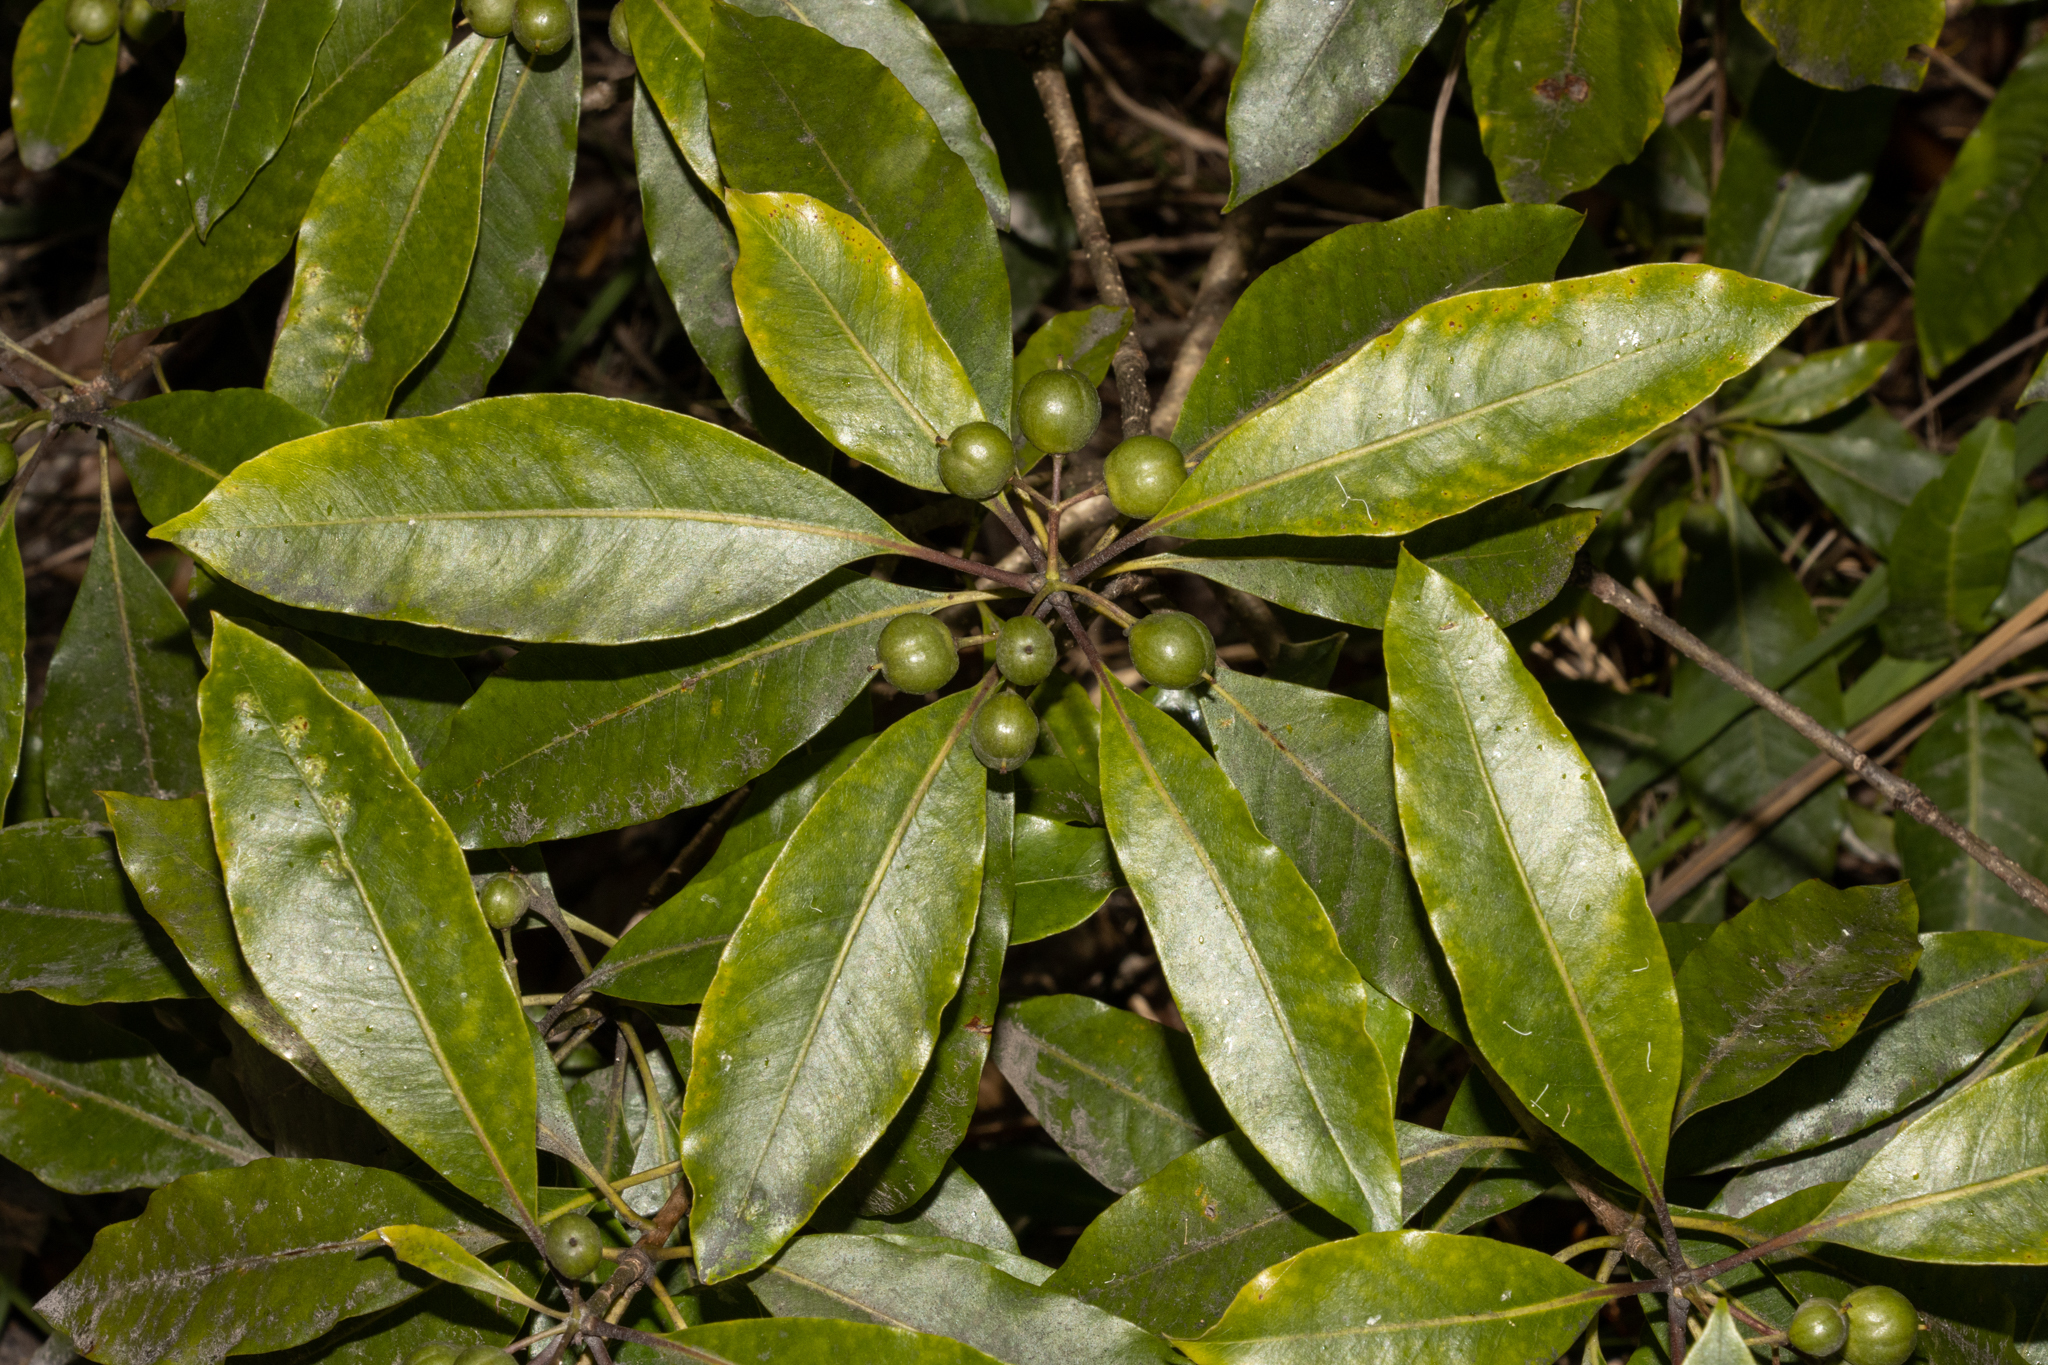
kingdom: Plantae
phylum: Tracheophyta
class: Magnoliopsida
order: Apiales
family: Pittosporaceae
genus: Pittosporum
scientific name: Pittosporum undulatum
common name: Australian cheesewood
